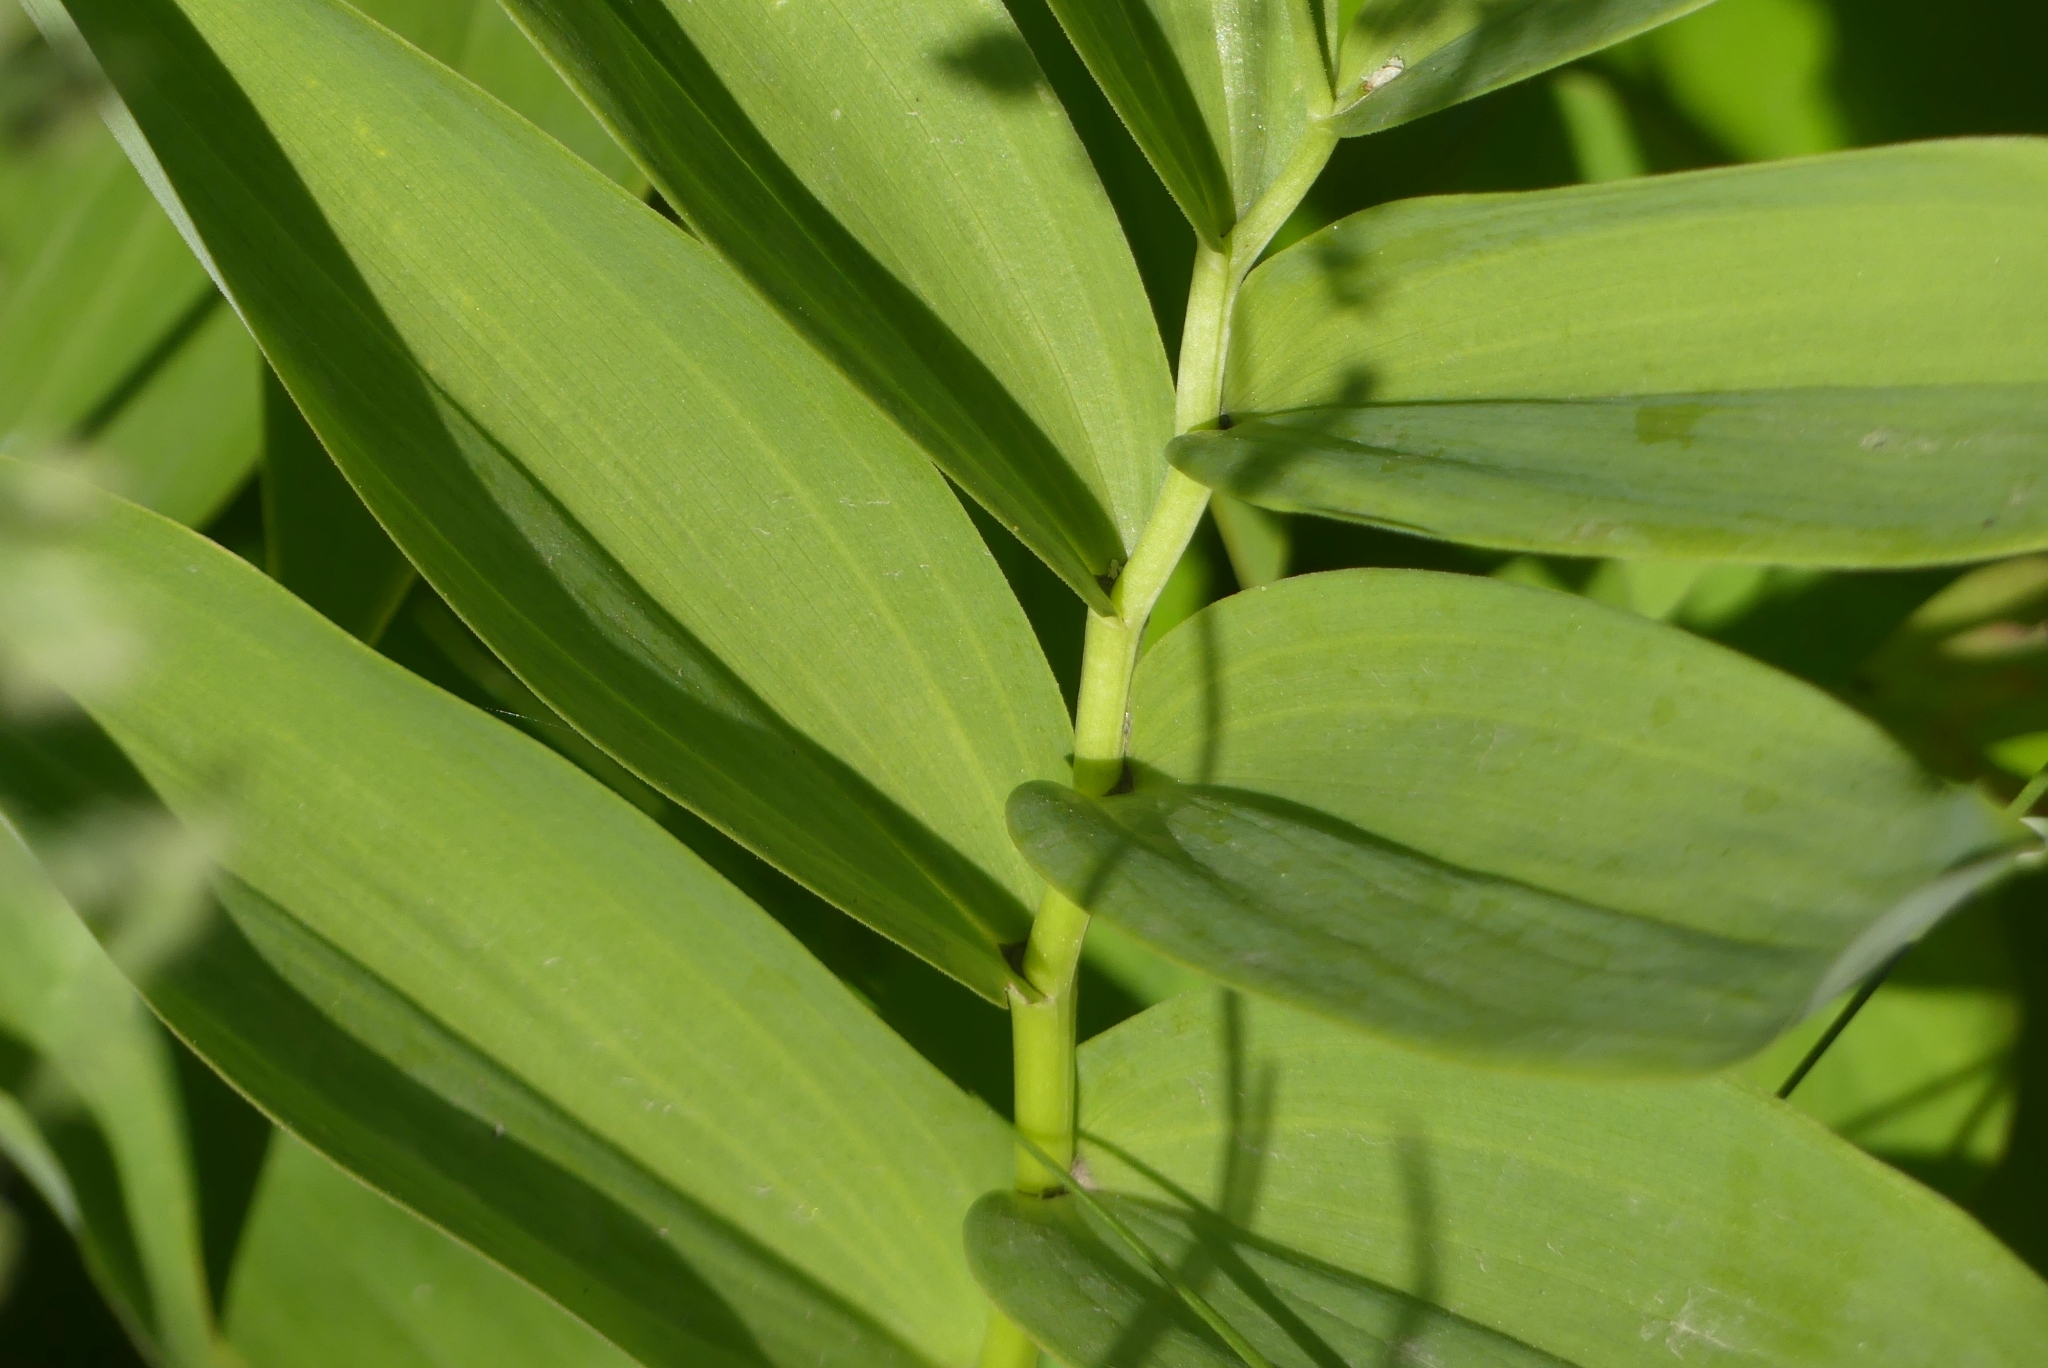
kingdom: Plantae
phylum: Tracheophyta
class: Liliopsida
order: Asparagales
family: Asparagaceae
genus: Maianthemum
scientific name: Maianthemum stellatum
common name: Little false solomon's seal
